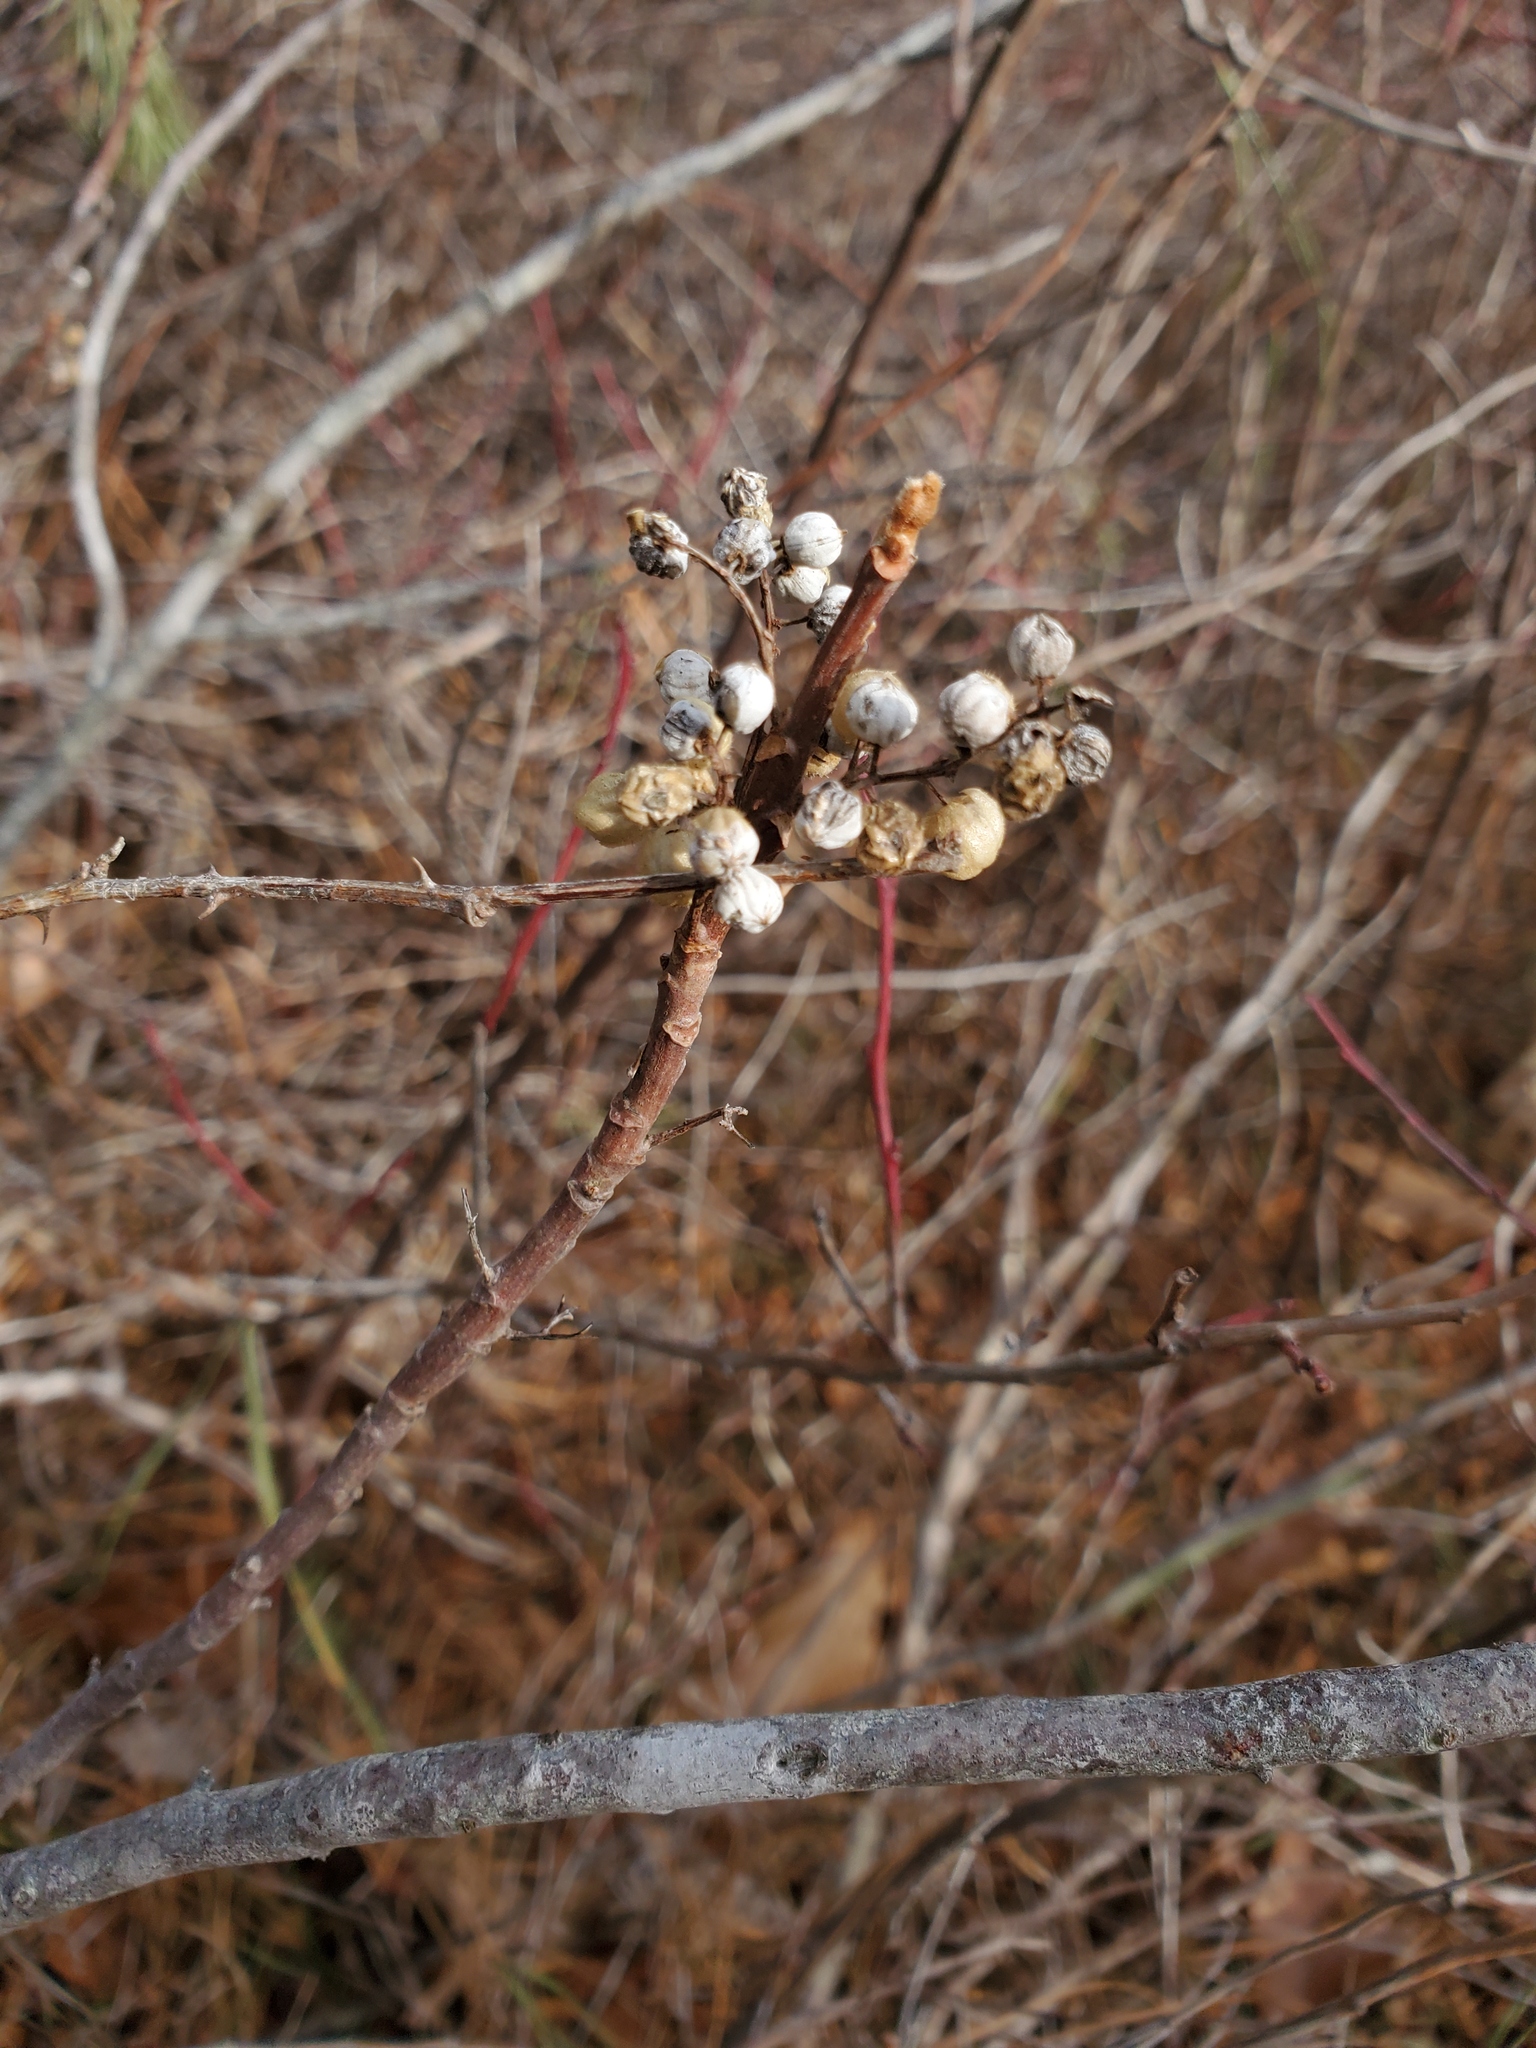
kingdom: Plantae
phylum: Tracheophyta
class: Magnoliopsida
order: Sapindales
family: Anacardiaceae
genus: Toxicodendron
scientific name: Toxicodendron radicans
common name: Poison ivy
